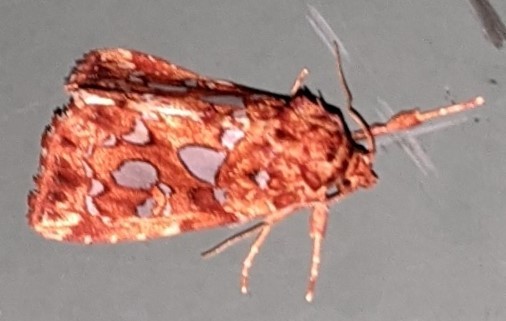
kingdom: Animalia
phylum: Arthropoda
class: Insecta
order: Lepidoptera
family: Noctuidae
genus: Callopistria
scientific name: Callopistria cordata
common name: Silver-spotted fern moth
